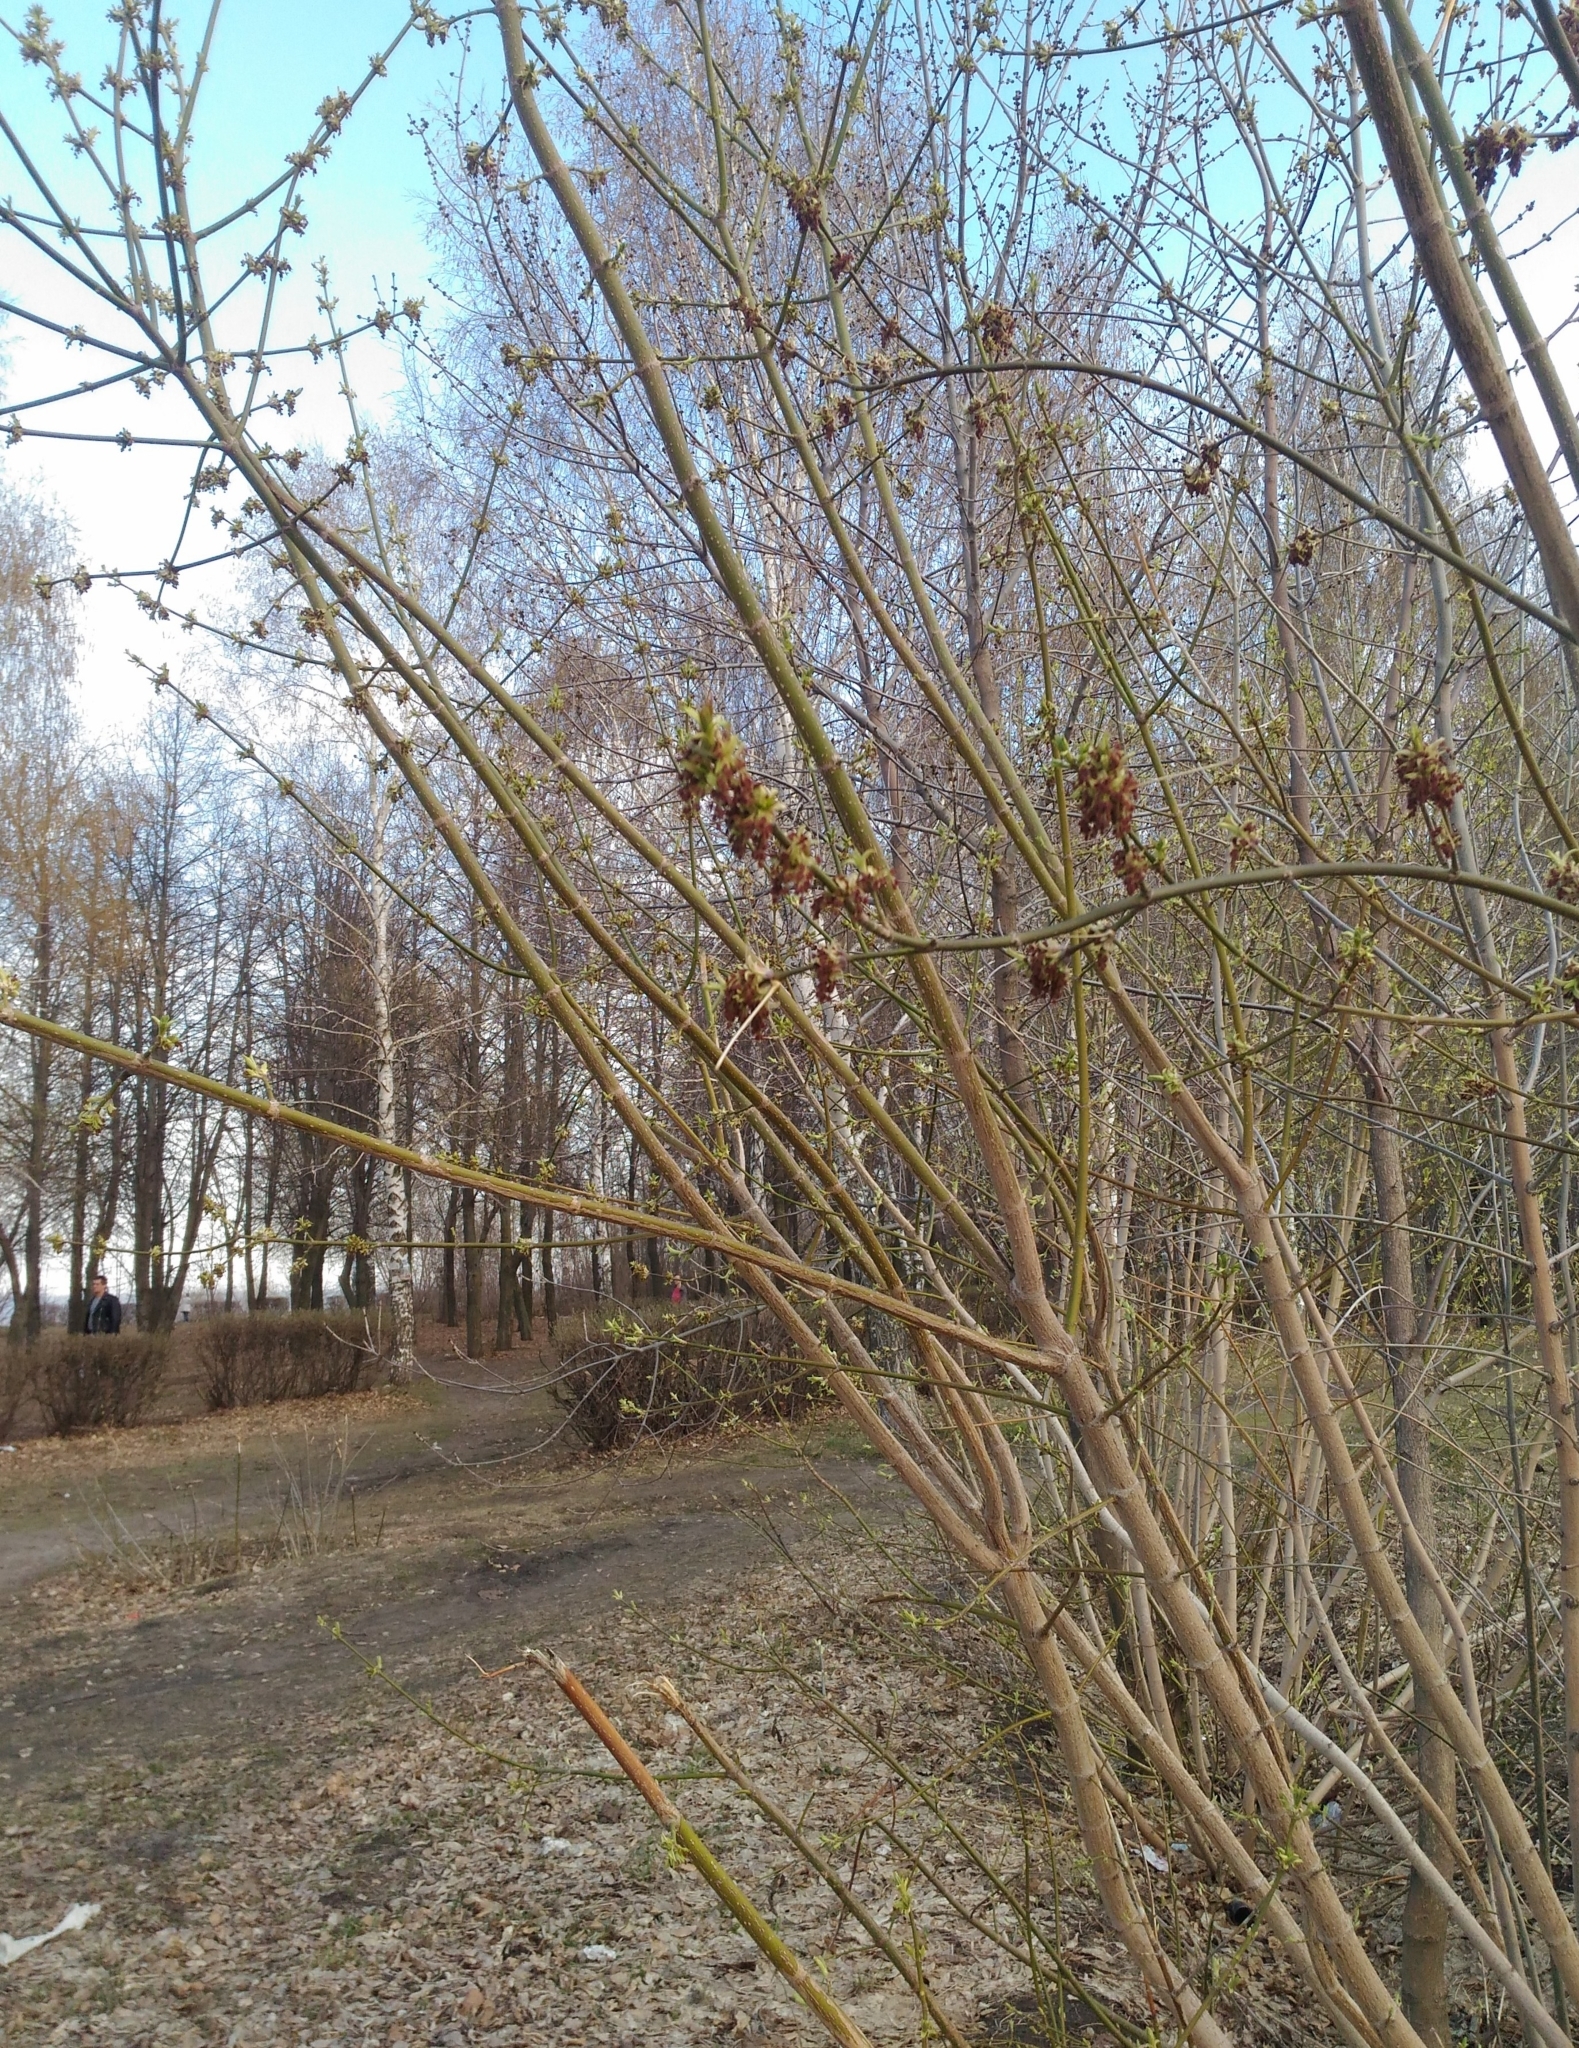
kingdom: Plantae
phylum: Tracheophyta
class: Magnoliopsida
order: Sapindales
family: Sapindaceae
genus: Acer
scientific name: Acer negundo
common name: Ashleaf maple
